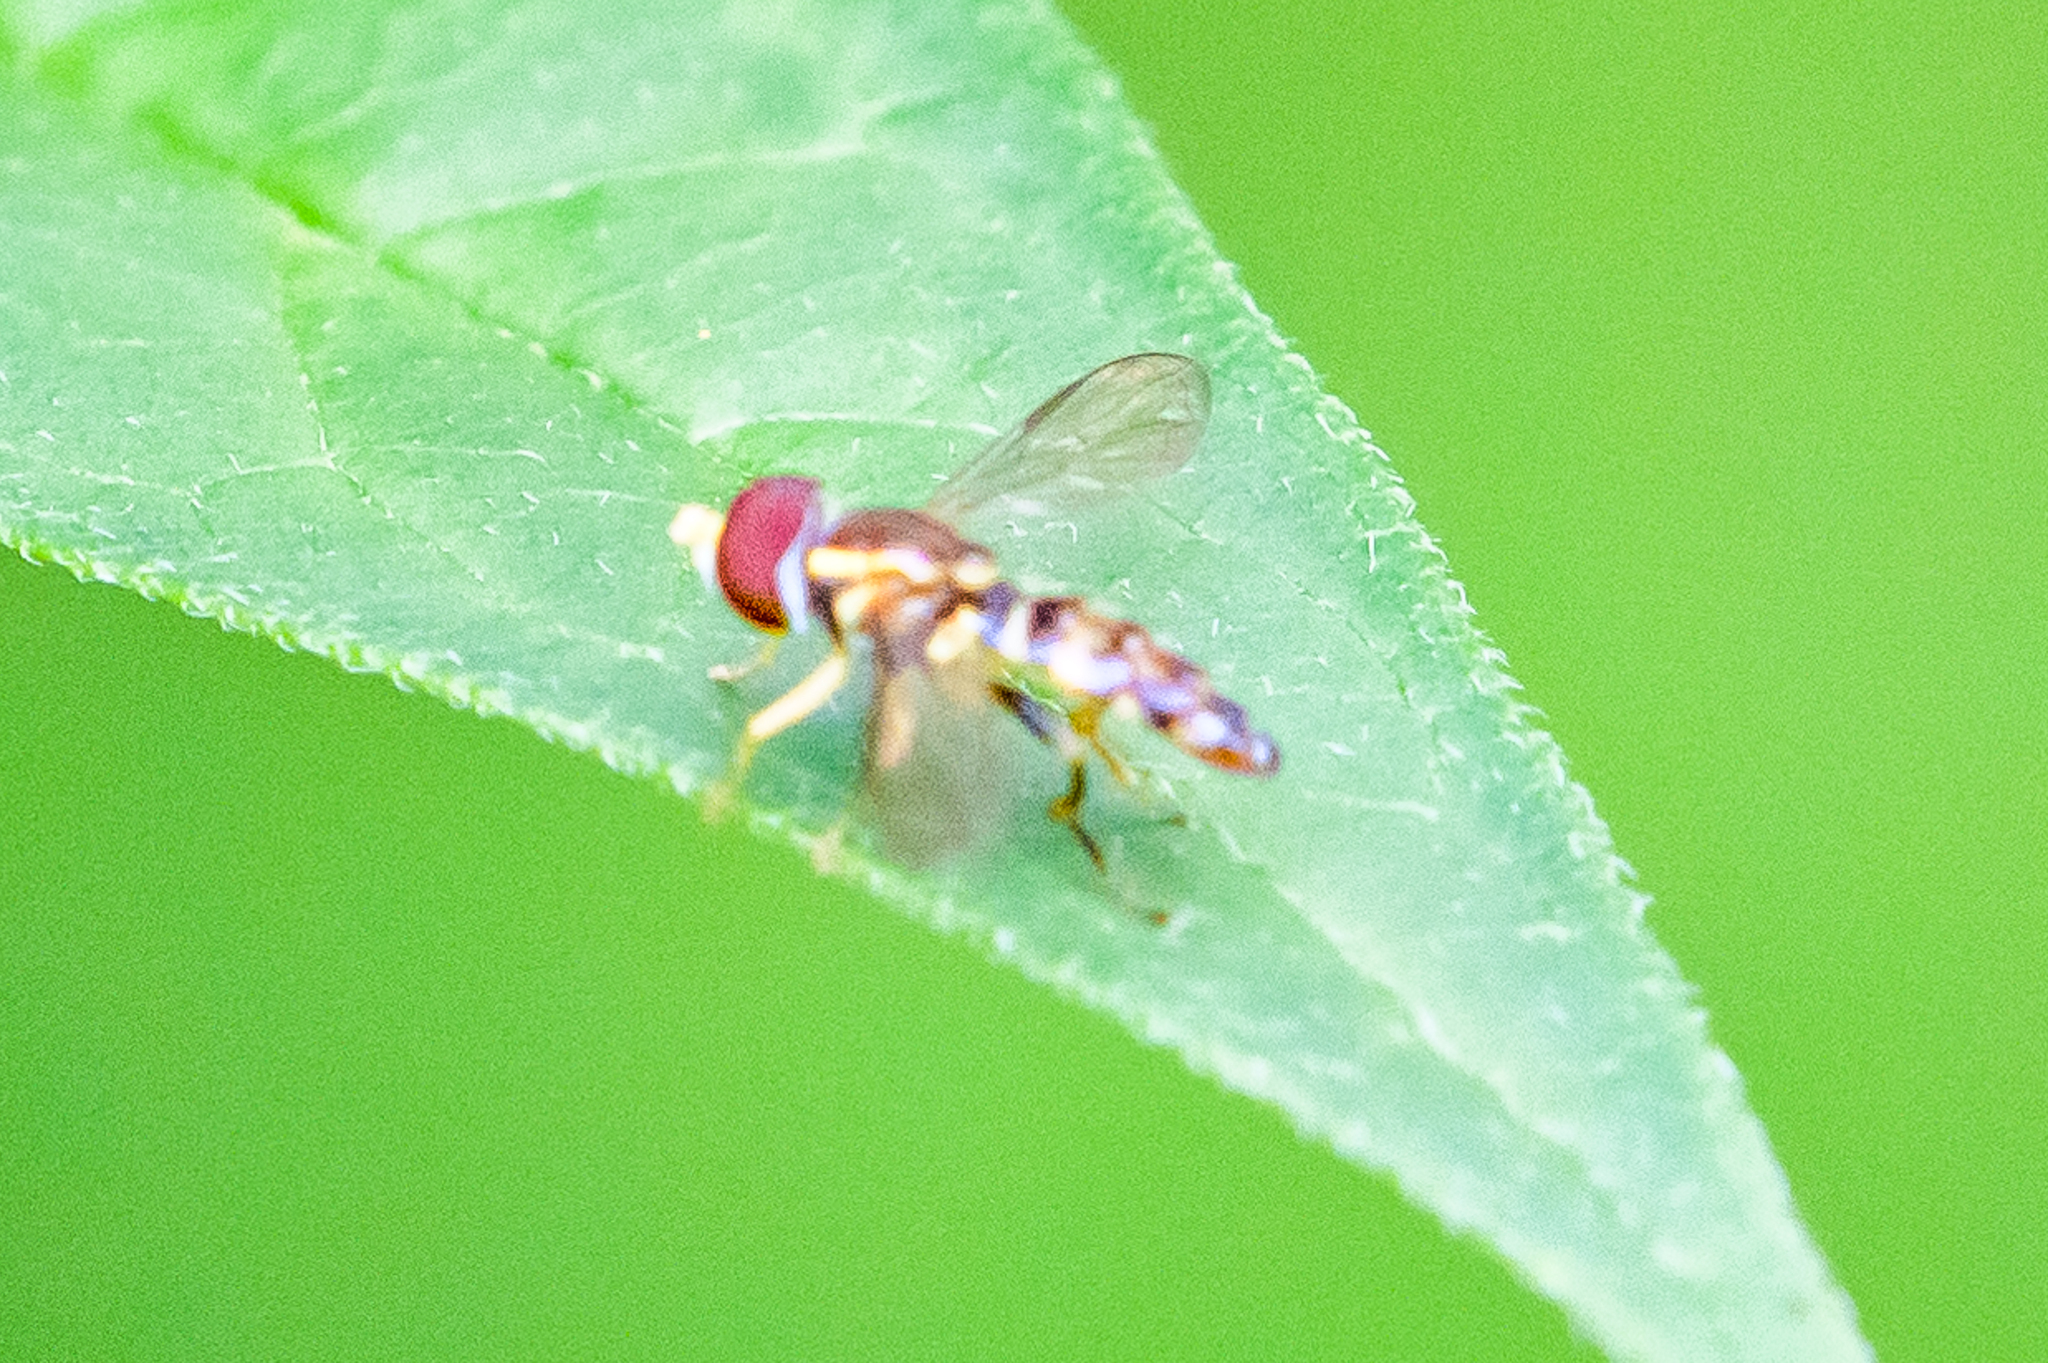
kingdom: Animalia
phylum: Arthropoda
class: Insecta
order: Diptera
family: Syrphidae
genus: Toxomerus
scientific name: Toxomerus geminatus
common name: Eastern calligrapher
